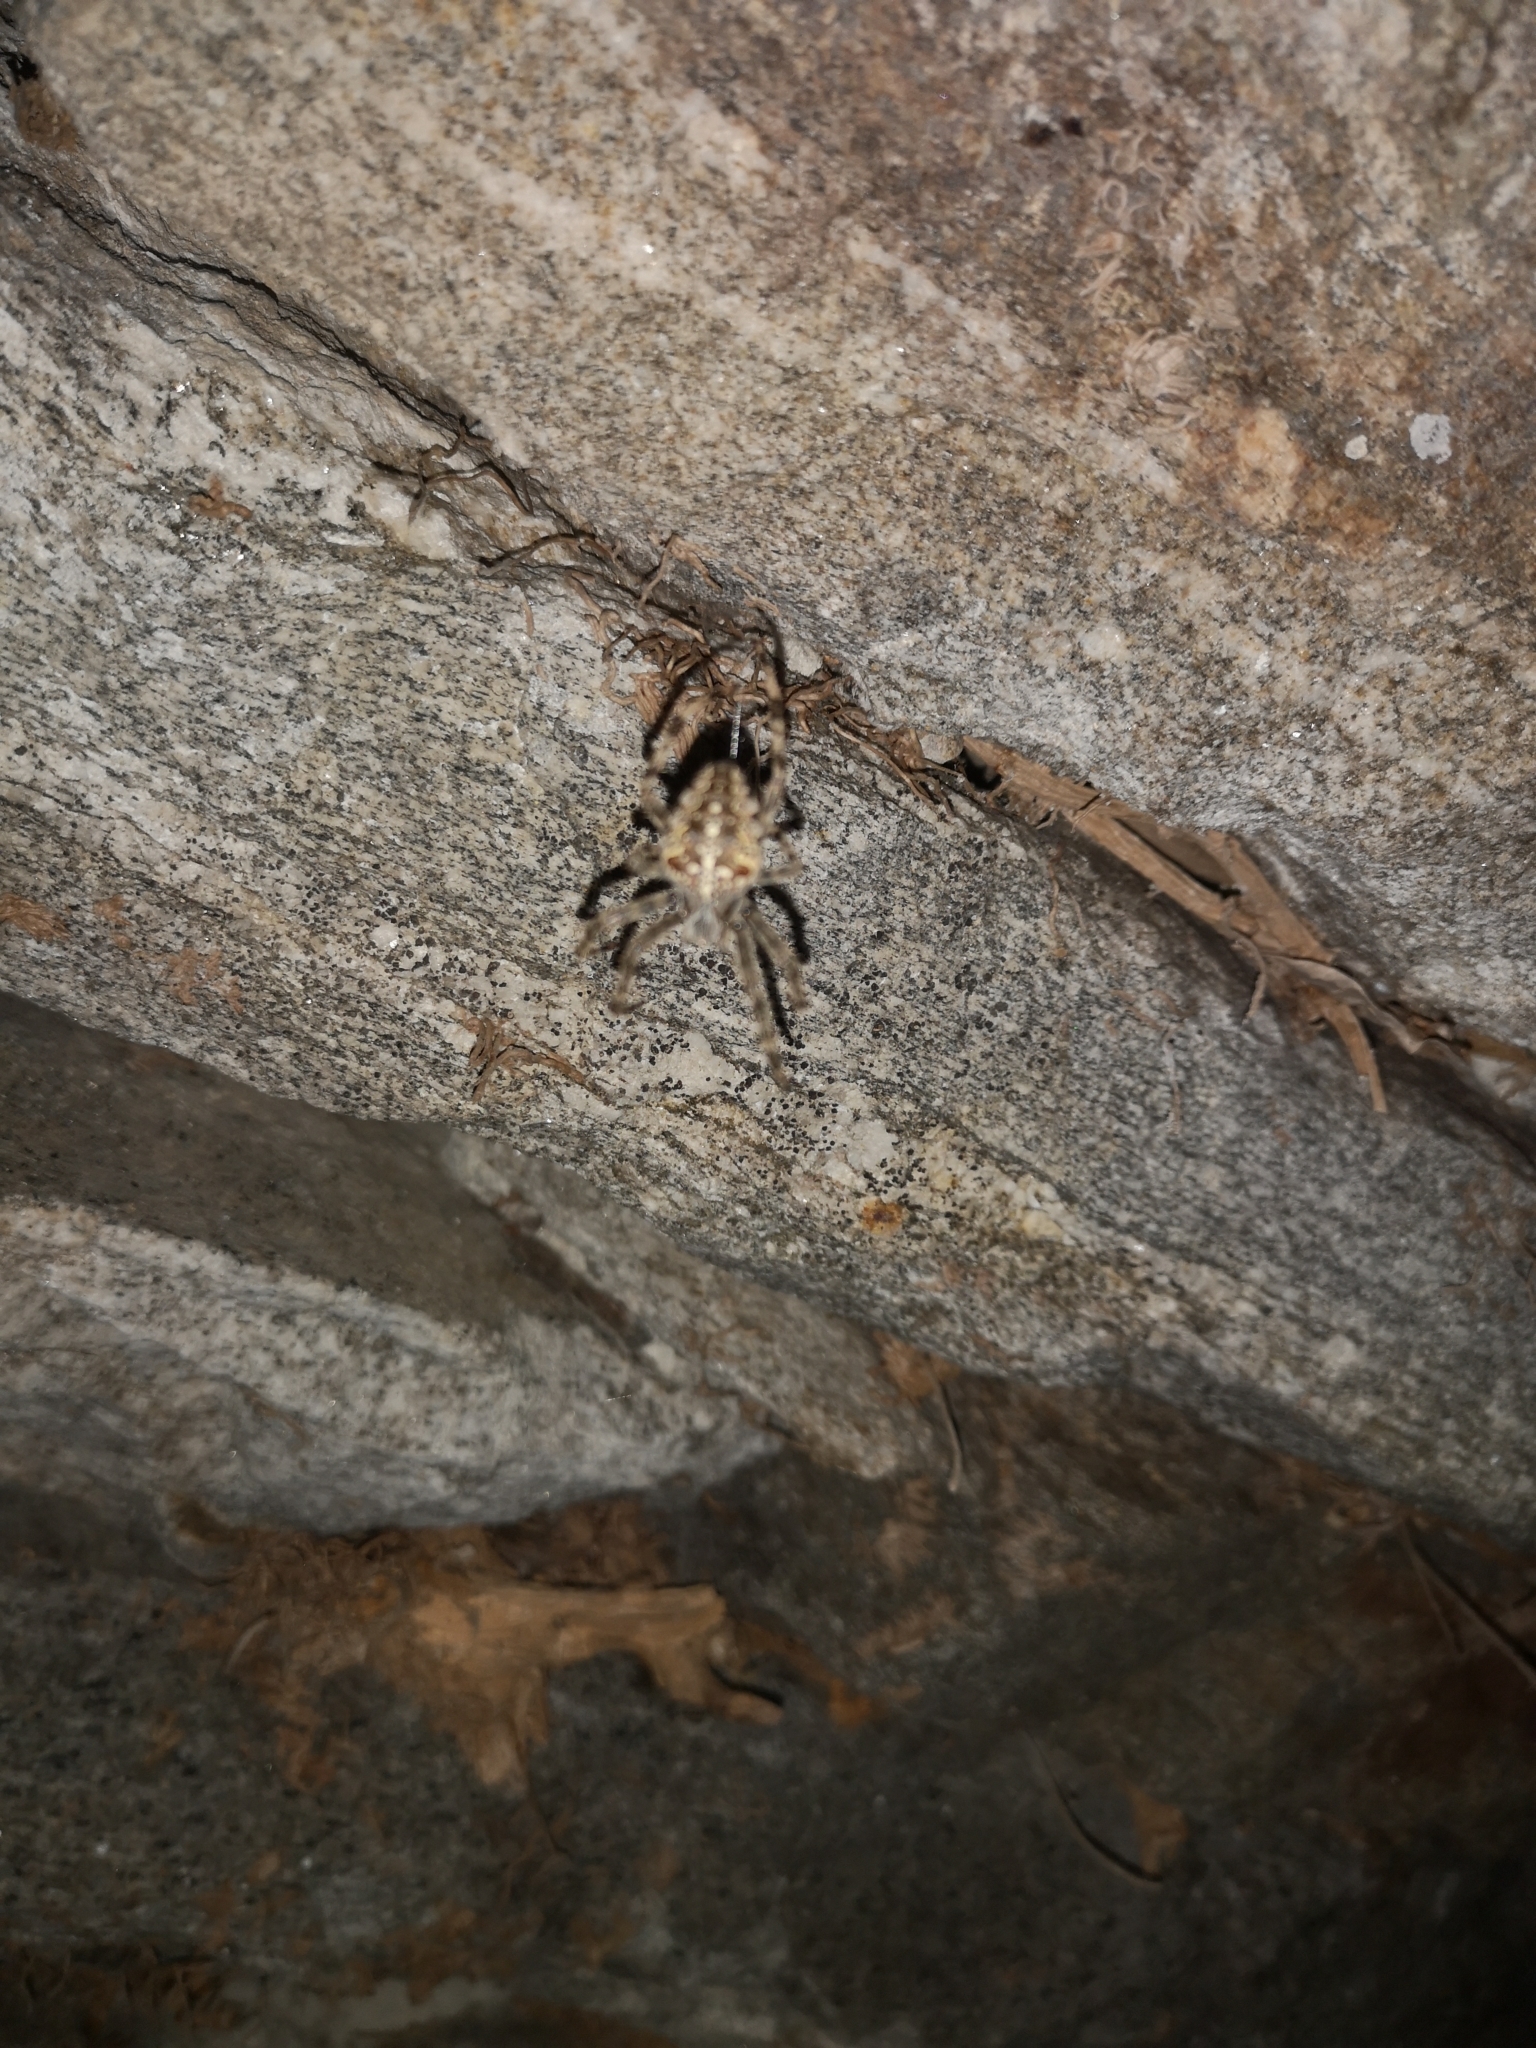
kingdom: Animalia
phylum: Arthropoda
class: Arachnida
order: Araneae
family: Araneidae
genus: Araneus
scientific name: Araneus diadematus
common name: Cross orbweaver
